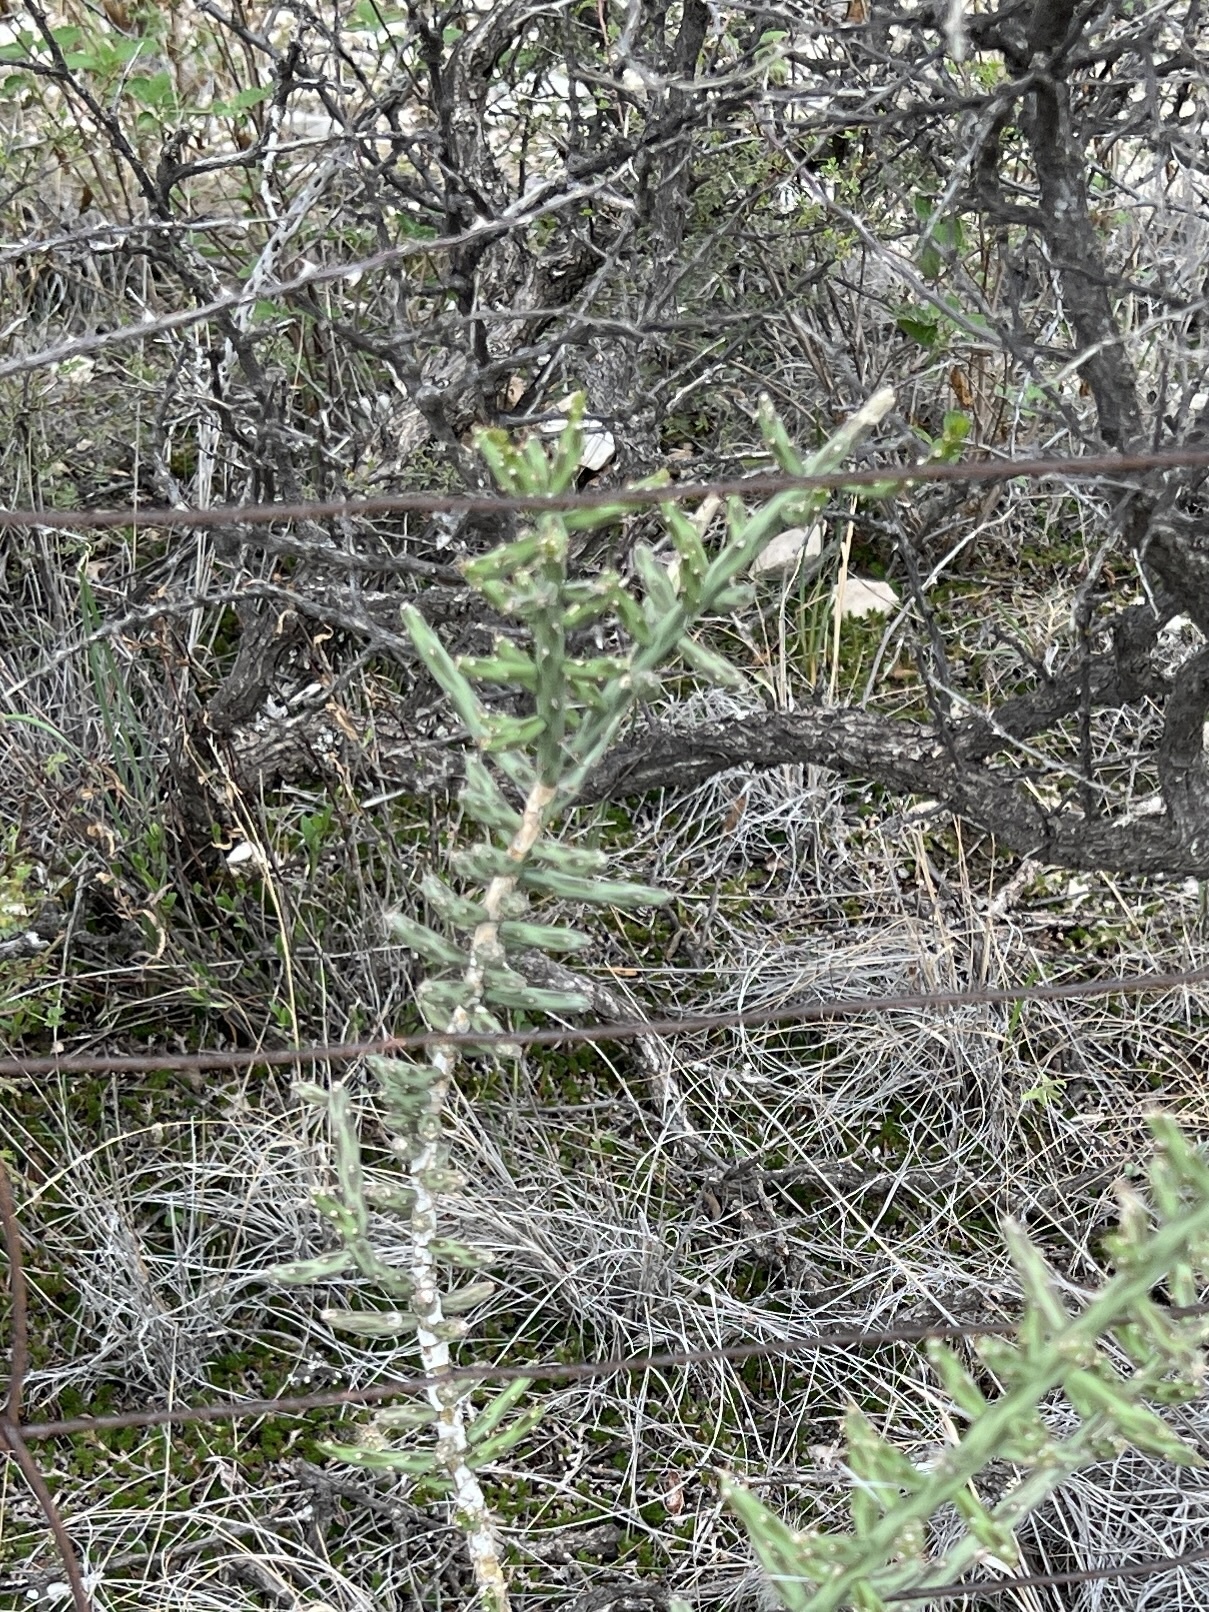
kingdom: Plantae
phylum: Tracheophyta
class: Magnoliopsida
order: Caryophyllales
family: Cactaceae
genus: Cylindropuntia
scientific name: Cylindropuntia leptocaulis
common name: Christmas cactus
